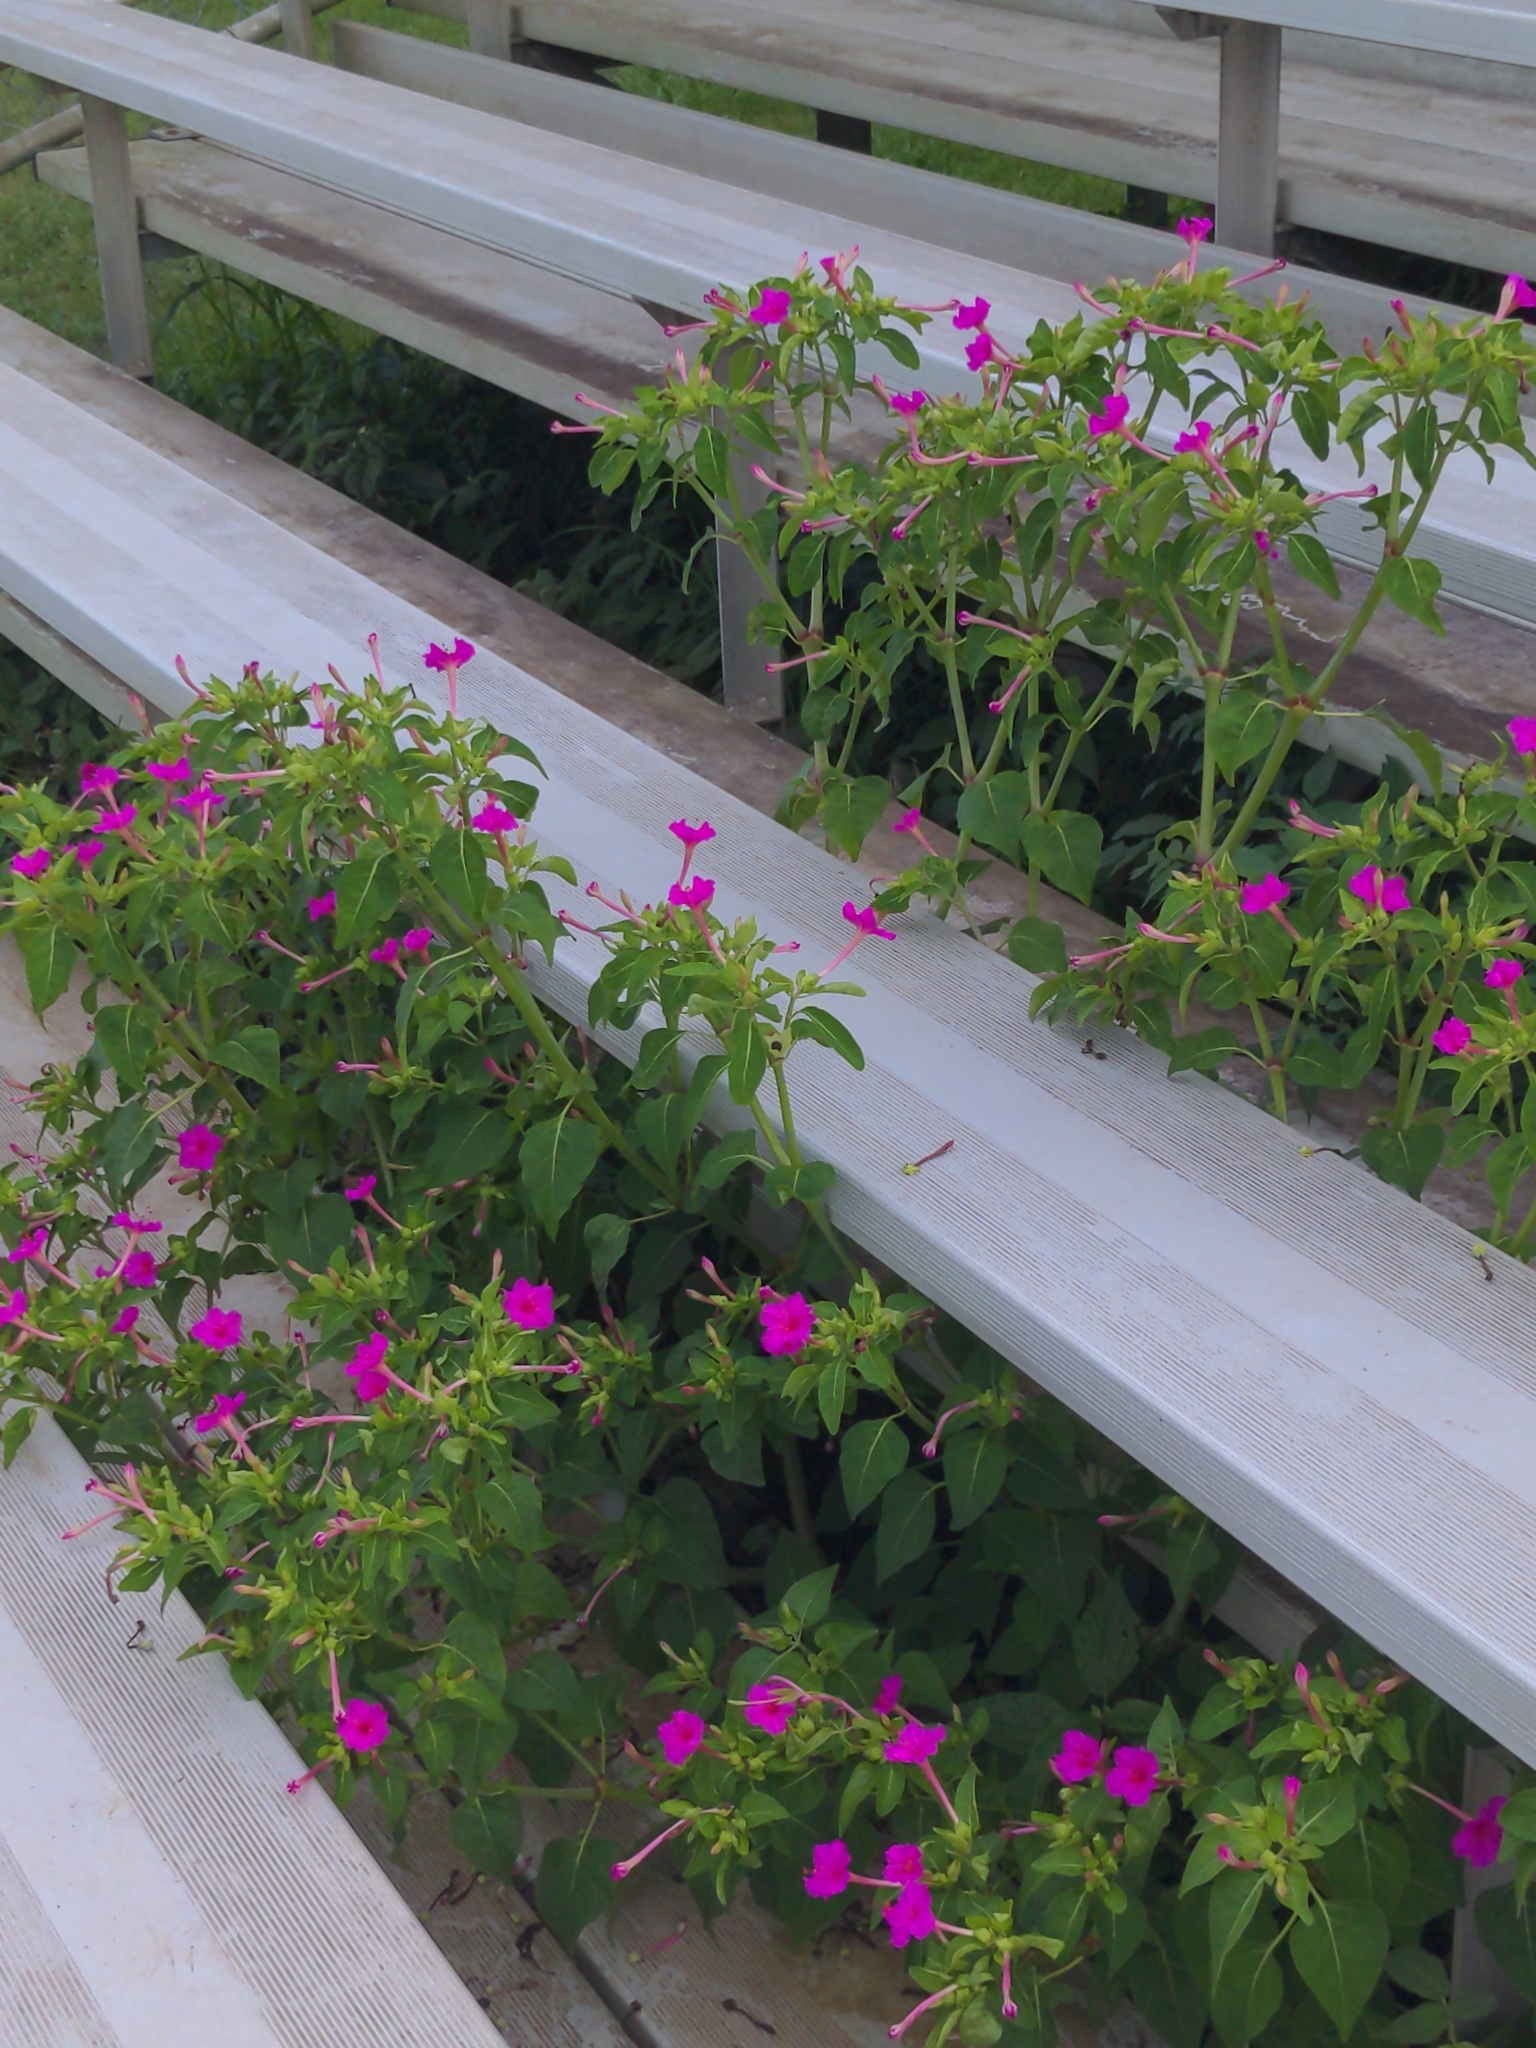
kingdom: Plantae
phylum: Tracheophyta
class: Magnoliopsida
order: Caryophyllales
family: Nyctaginaceae
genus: Mirabilis
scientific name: Mirabilis jalapa
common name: Marvel-of-peru
